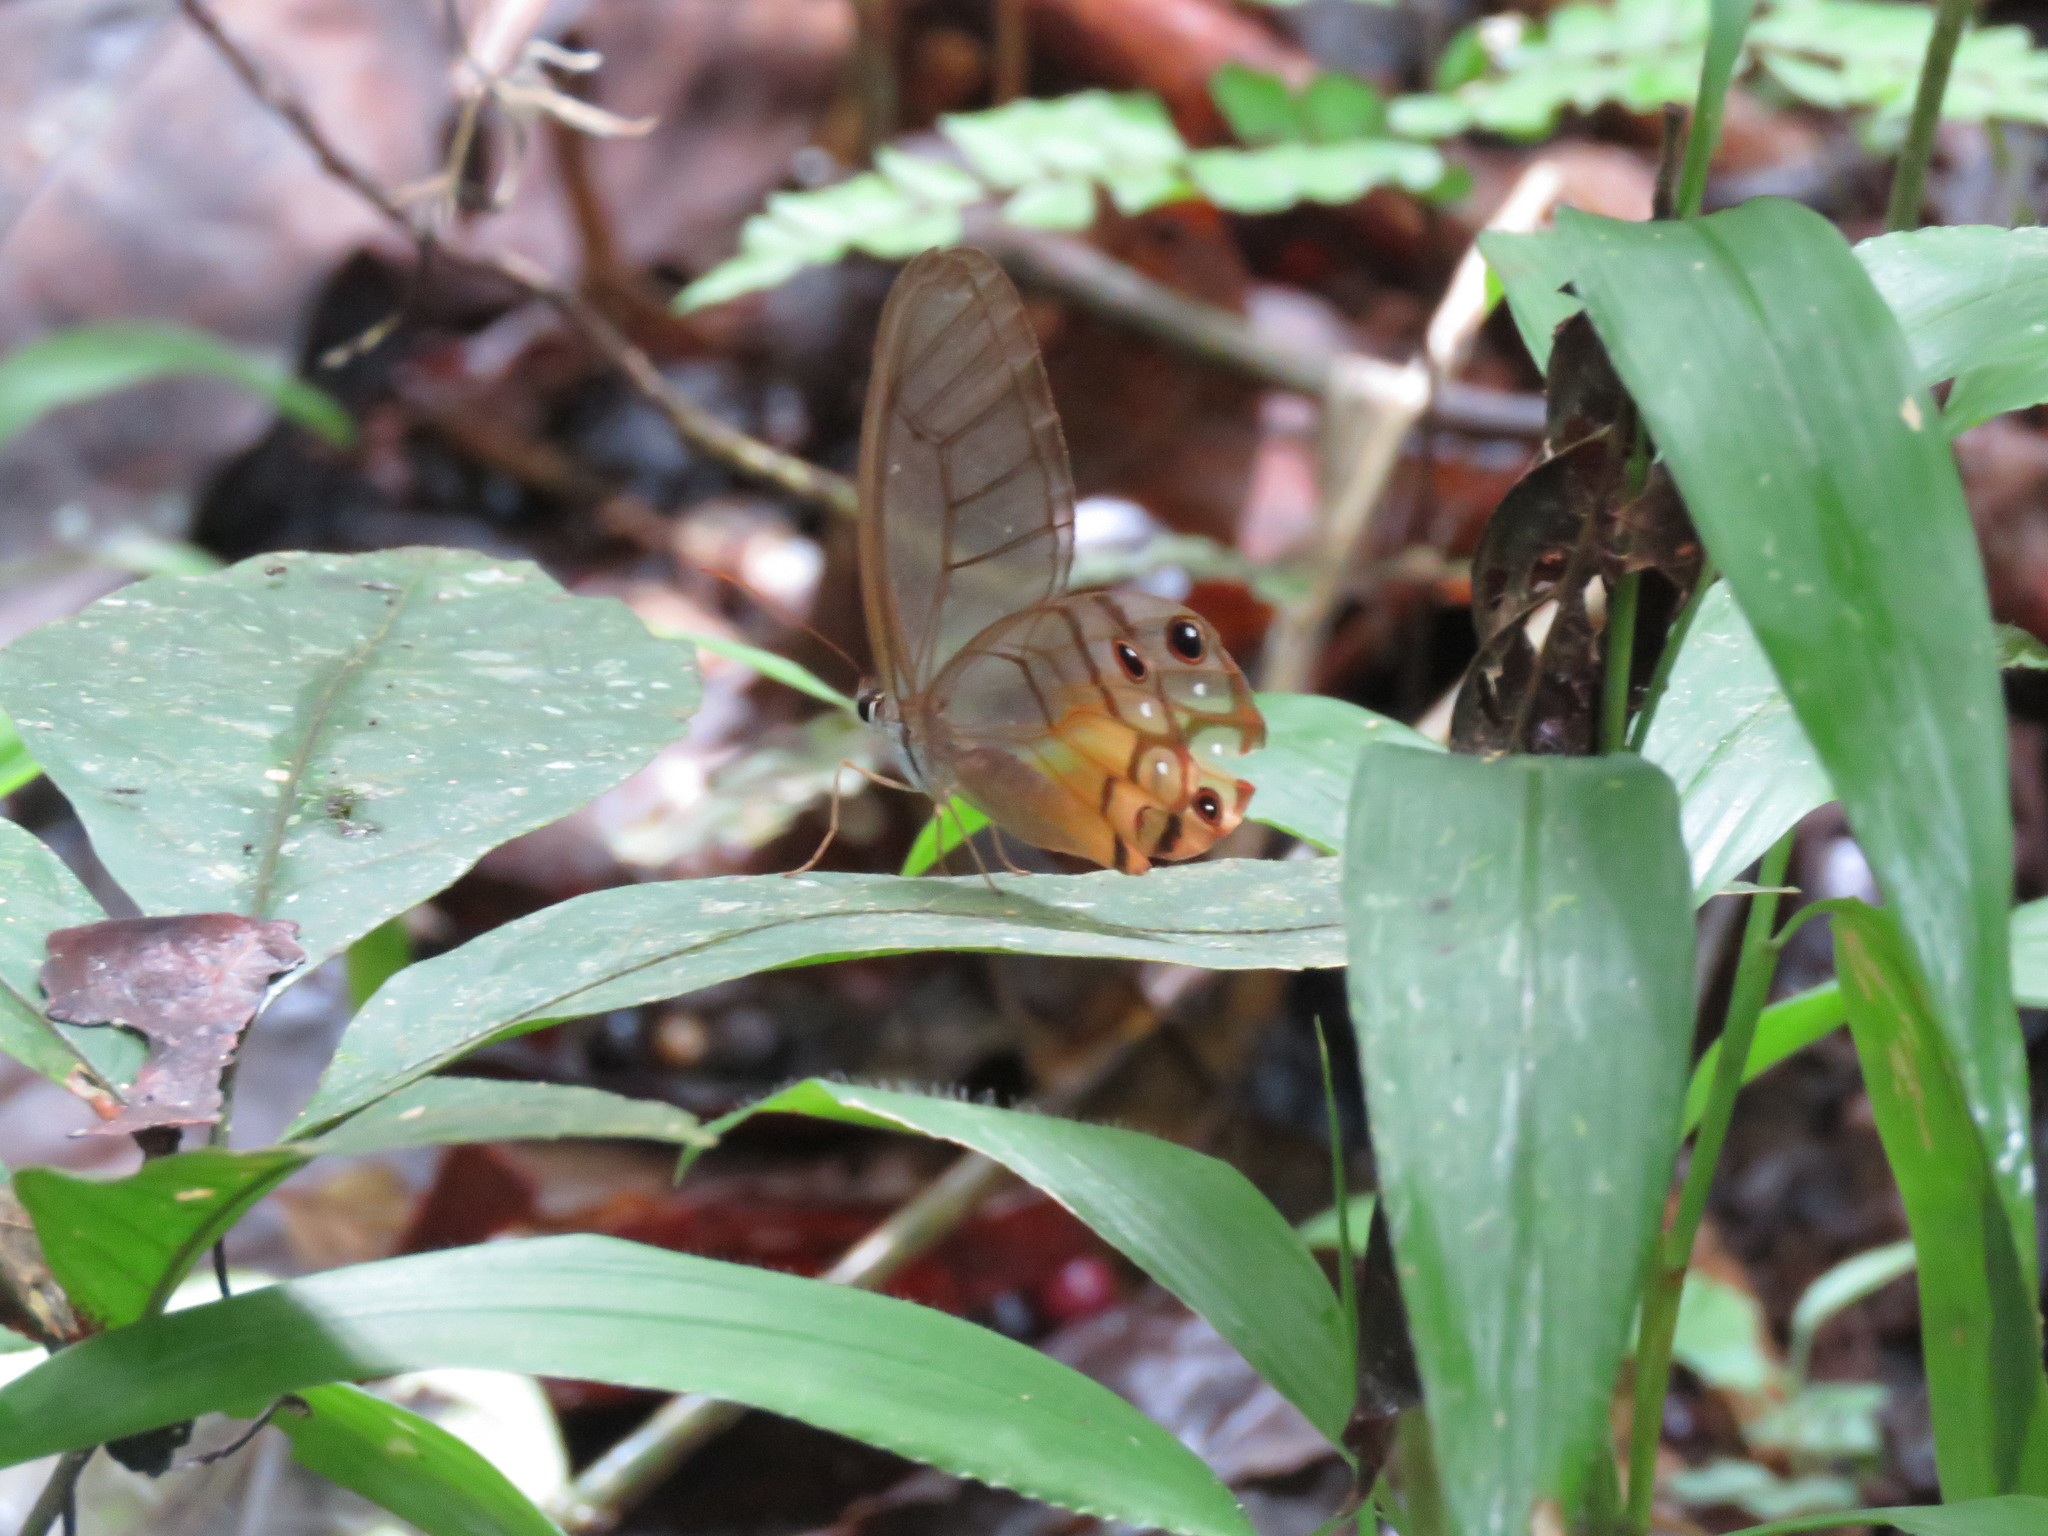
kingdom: Animalia
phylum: Arthropoda
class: Insecta
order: Lepidoptera
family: Nymphalidae
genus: Haetera
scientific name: Haetera piera
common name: Amber phantom
